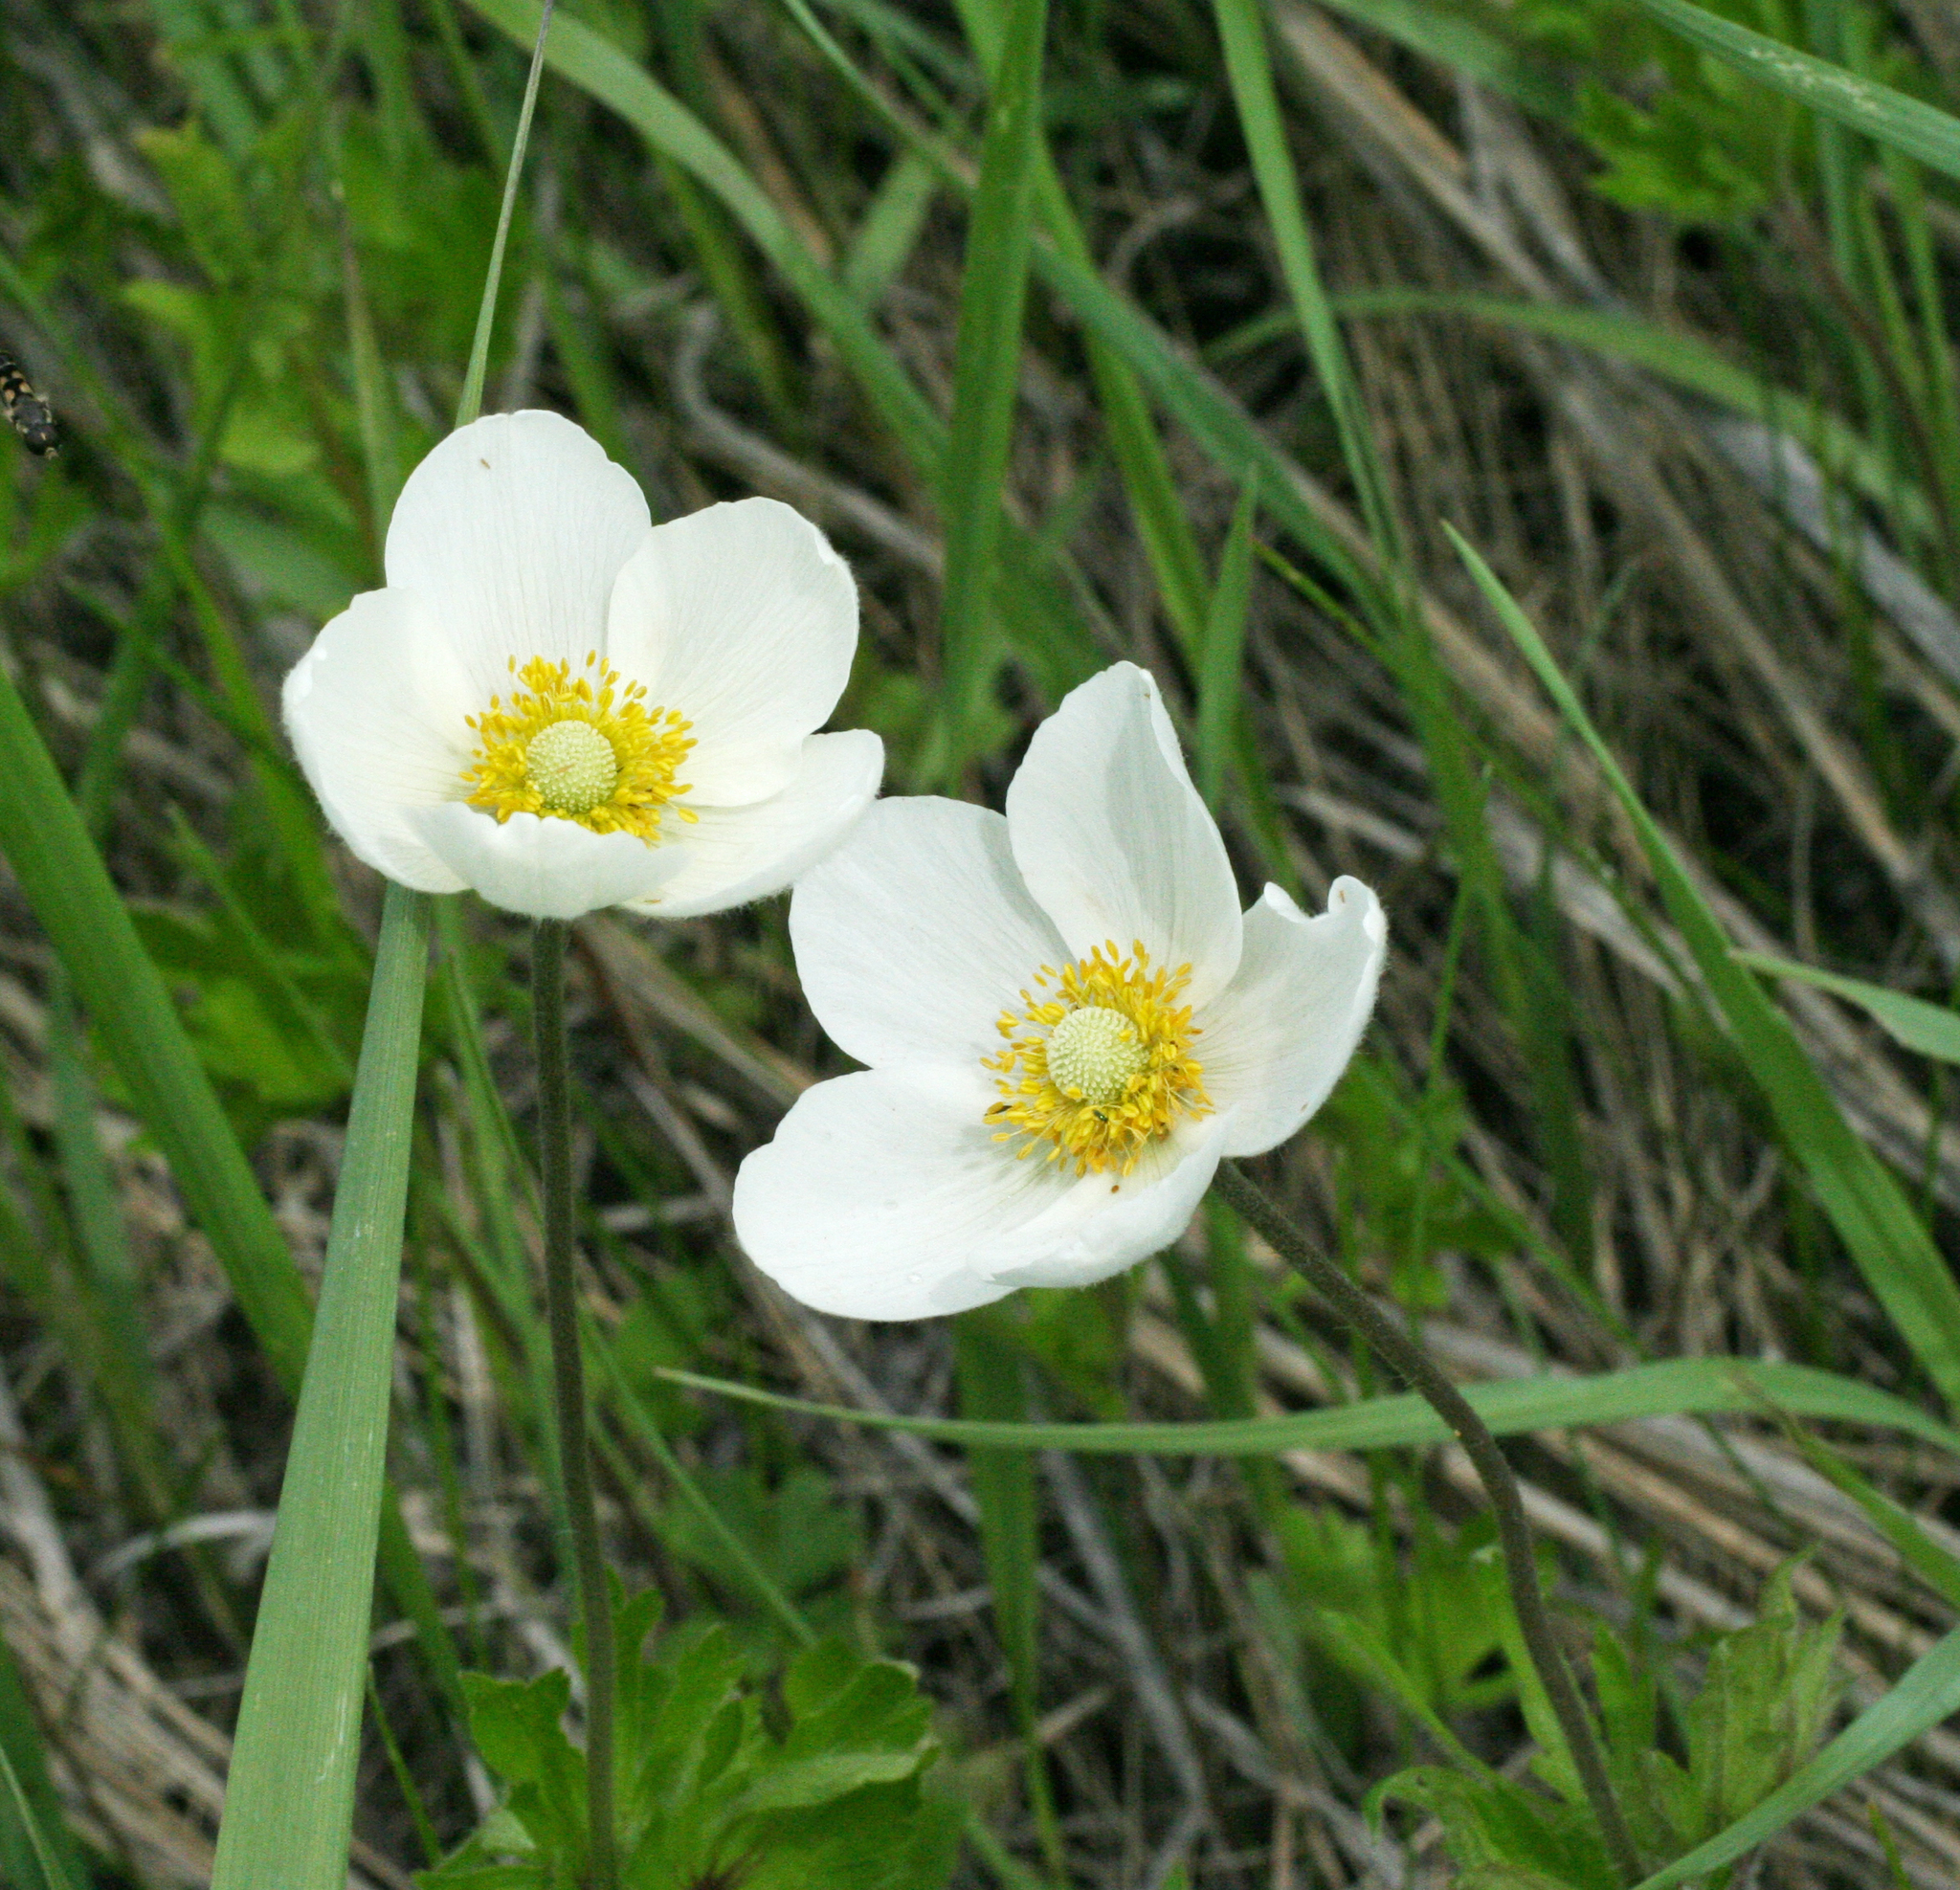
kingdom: Plantae
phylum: Tracheophyta
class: Magnoliopsida
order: Ranunculales
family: Ranunculaceae
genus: Anemone
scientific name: Anemone sylvestris
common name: Snowdrop anemone
